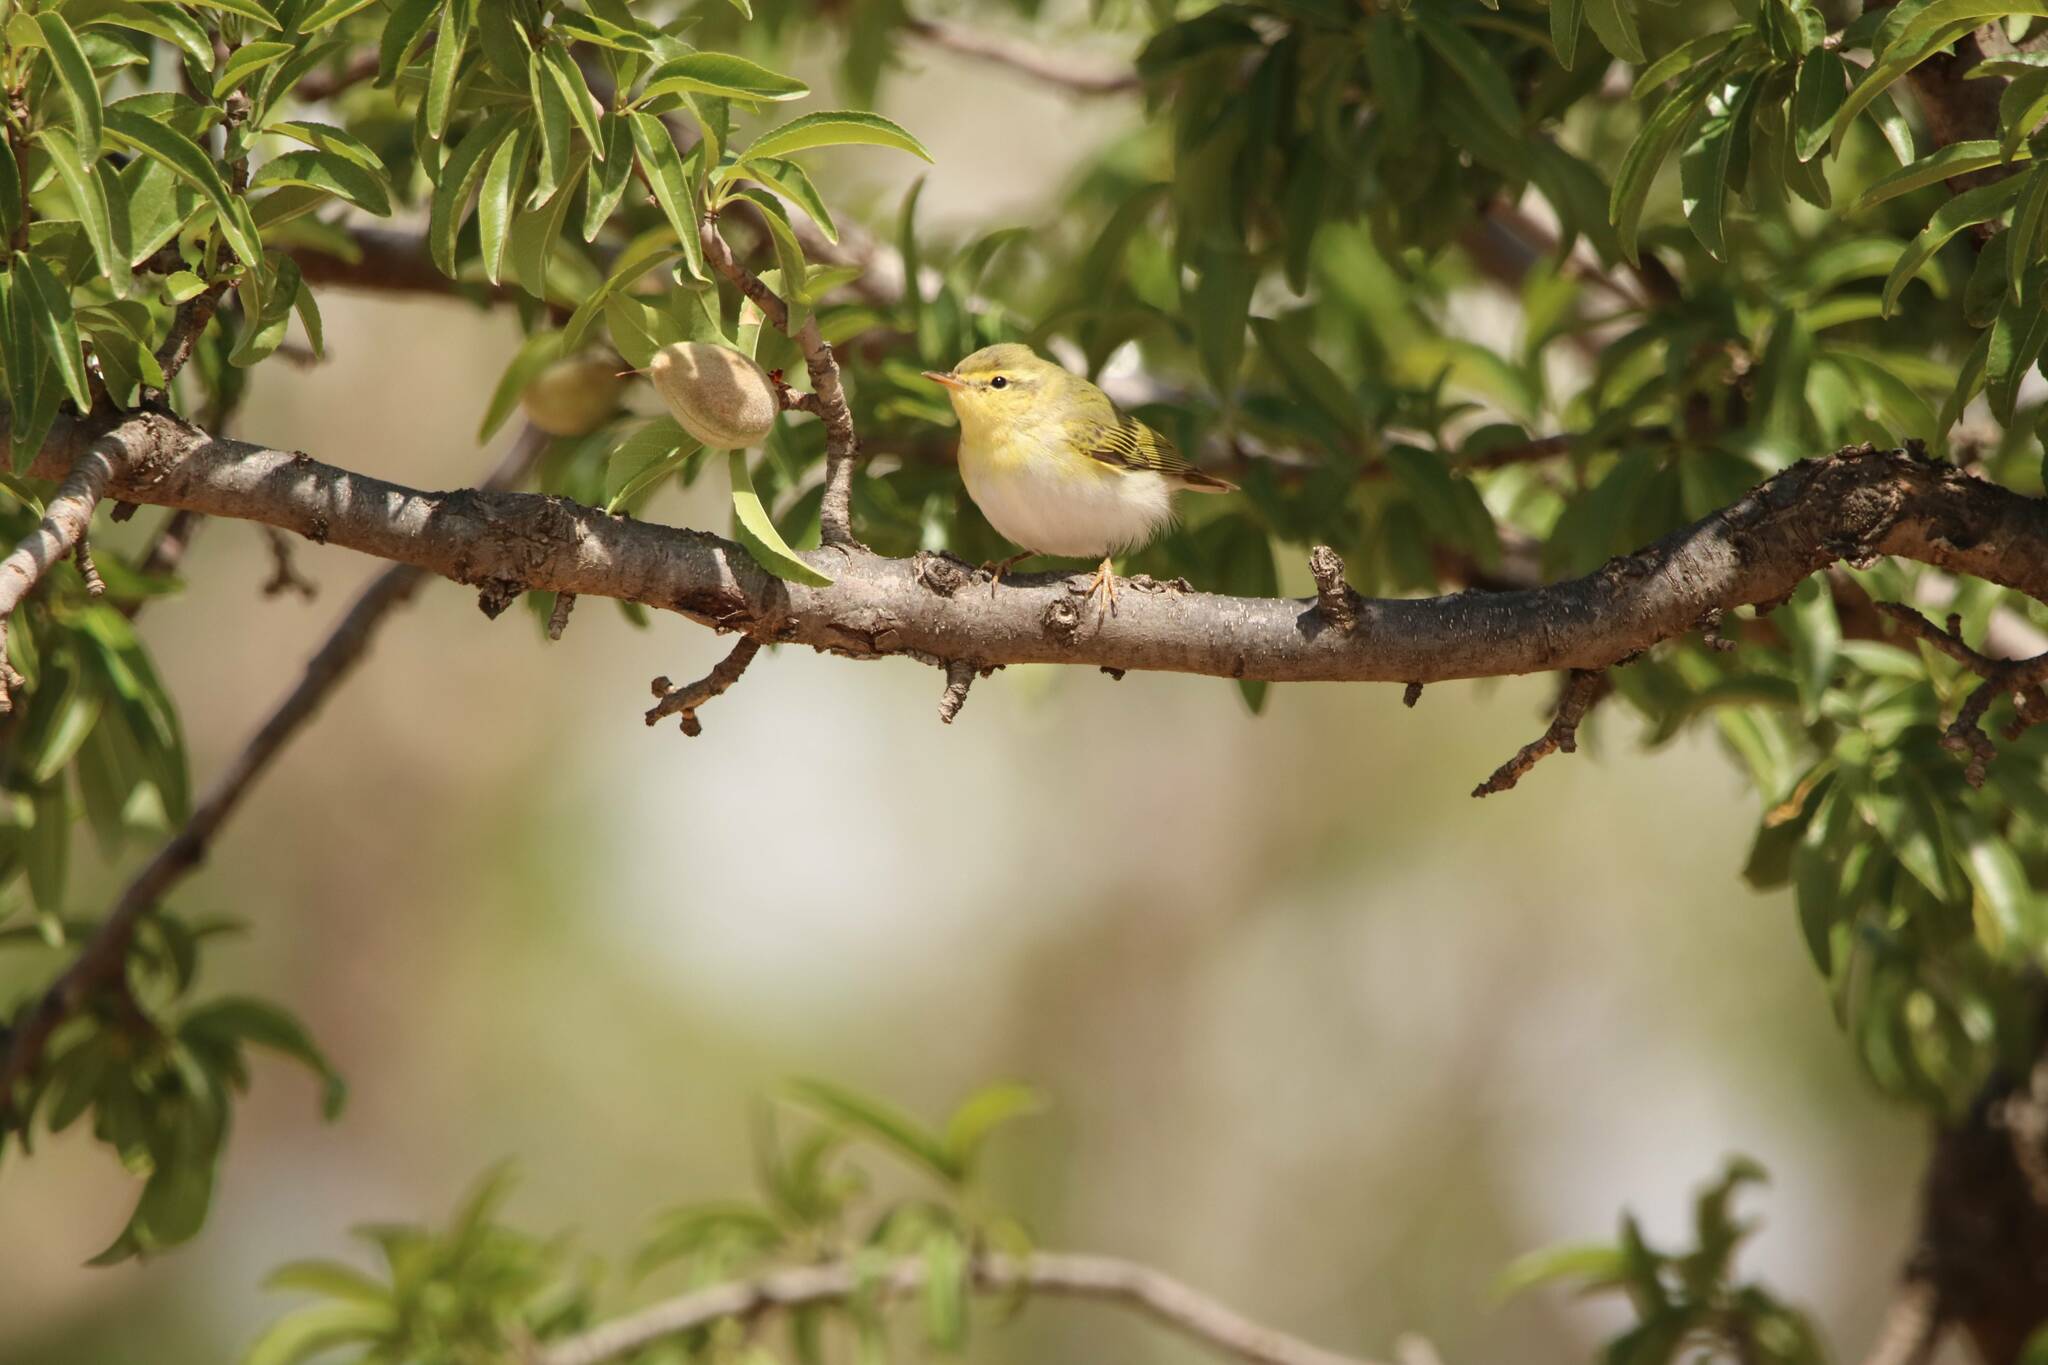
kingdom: Animalia
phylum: Chordata
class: Aves
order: Passeriformes
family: Phylloscopidae
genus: Phylloscopus
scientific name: Phylloscopus sibillatrix
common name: Wood warbler
